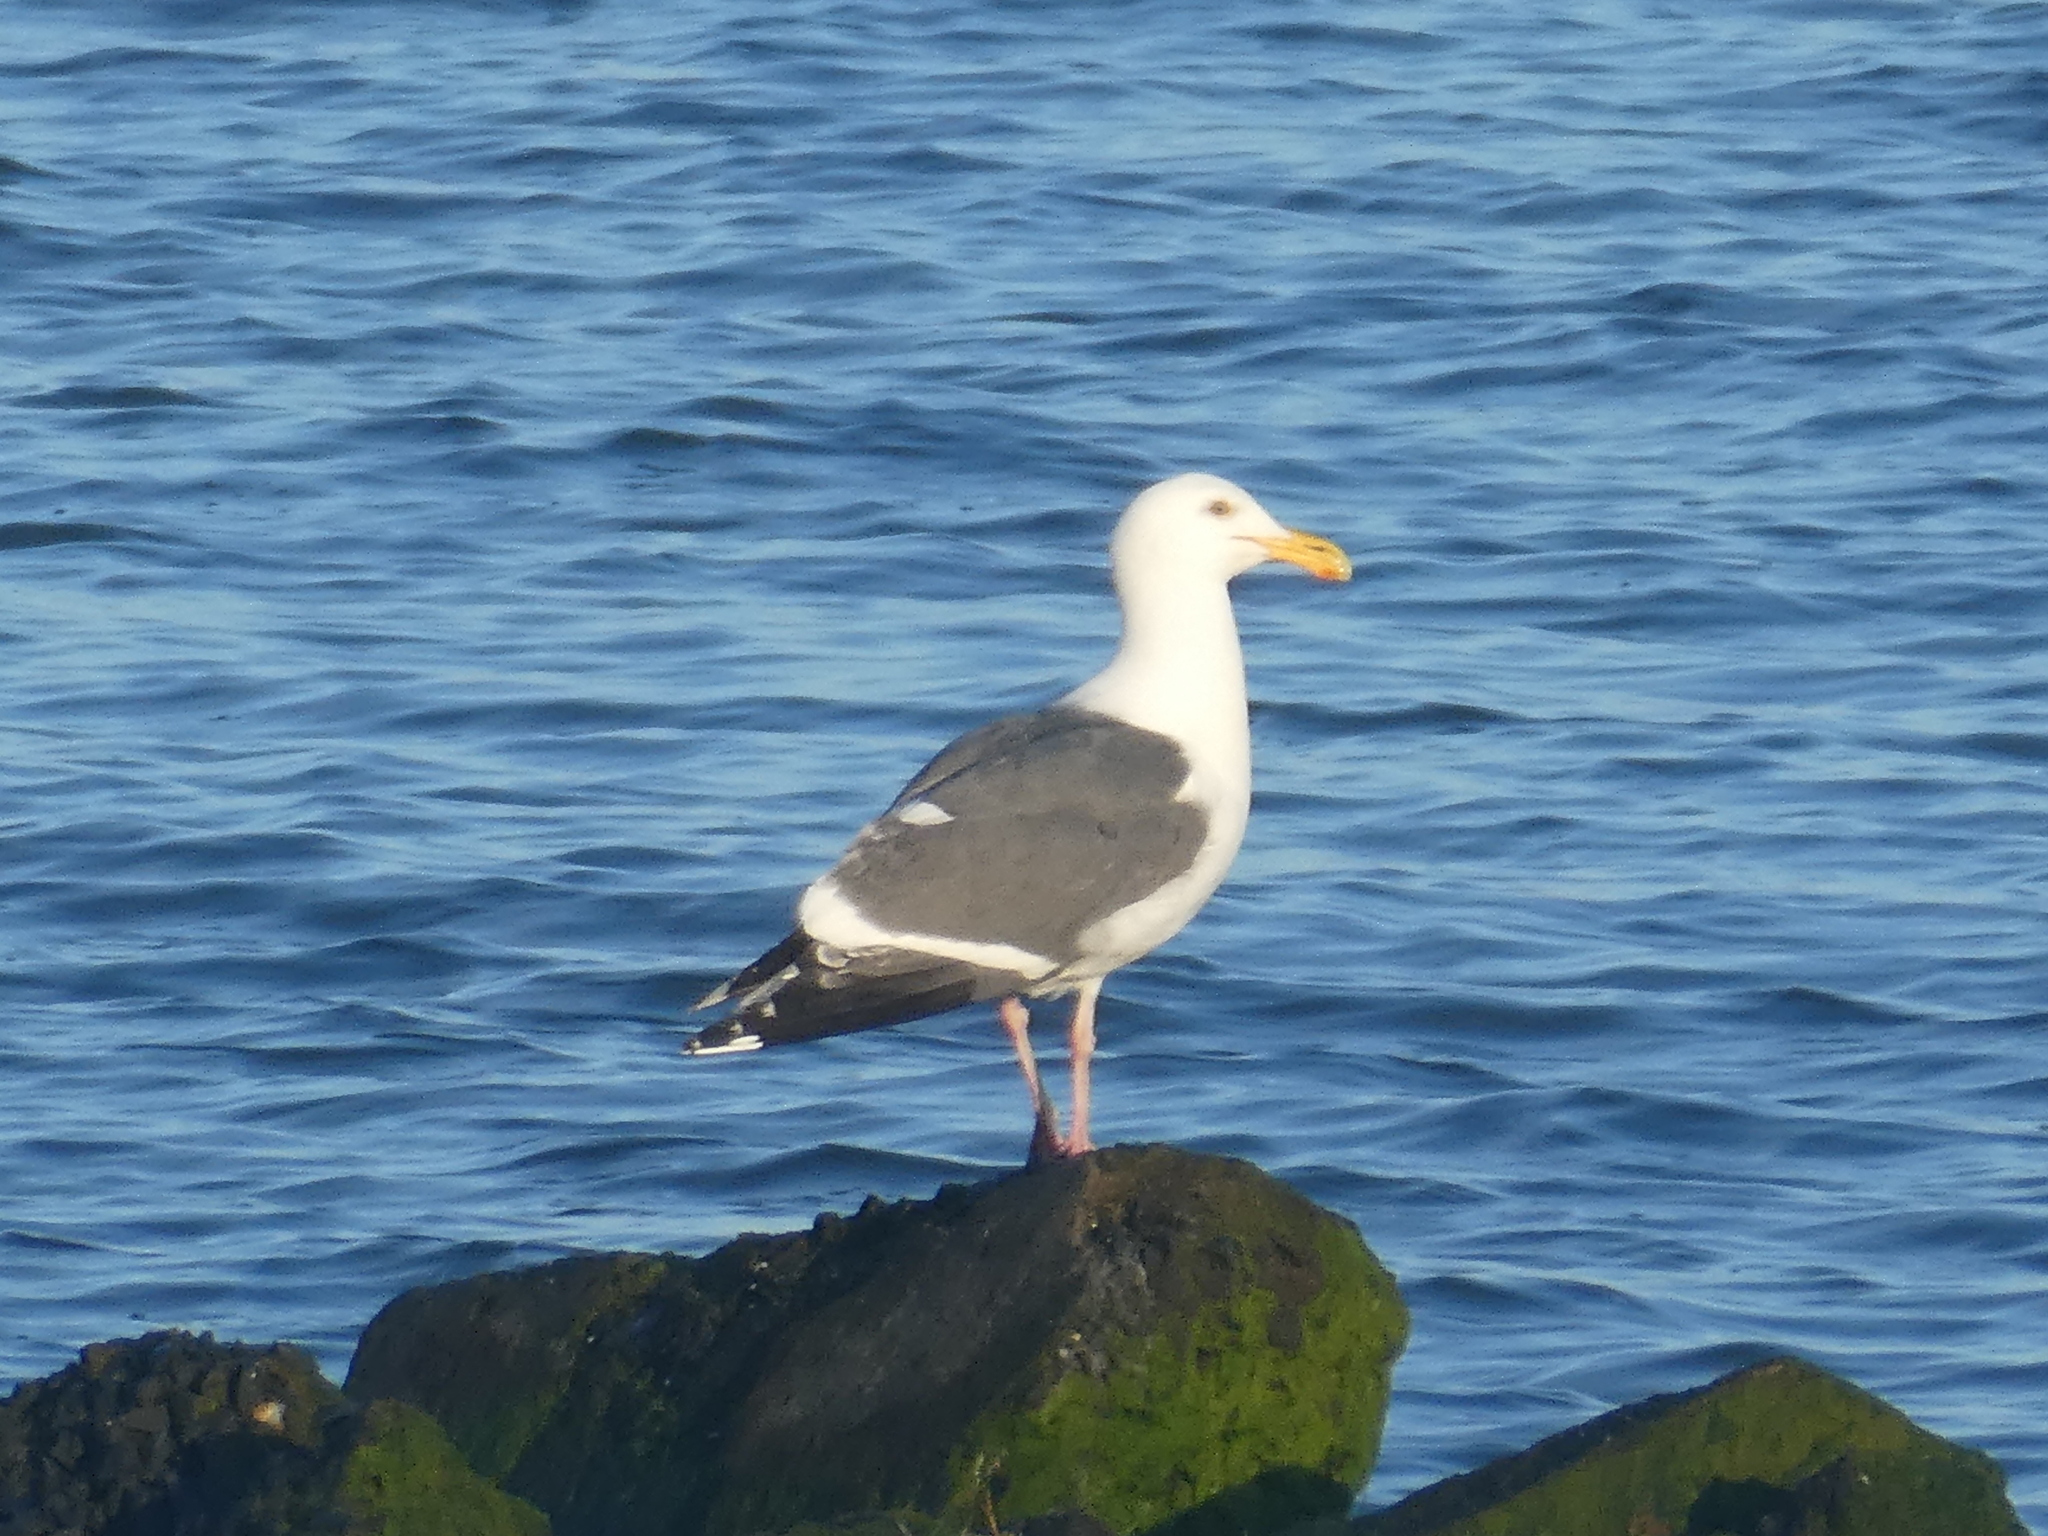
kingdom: Animalia
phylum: Chordata
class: Aves
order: Charadriiformes
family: Laridae
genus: Larus
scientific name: Larus occidentalis
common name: Western gull
